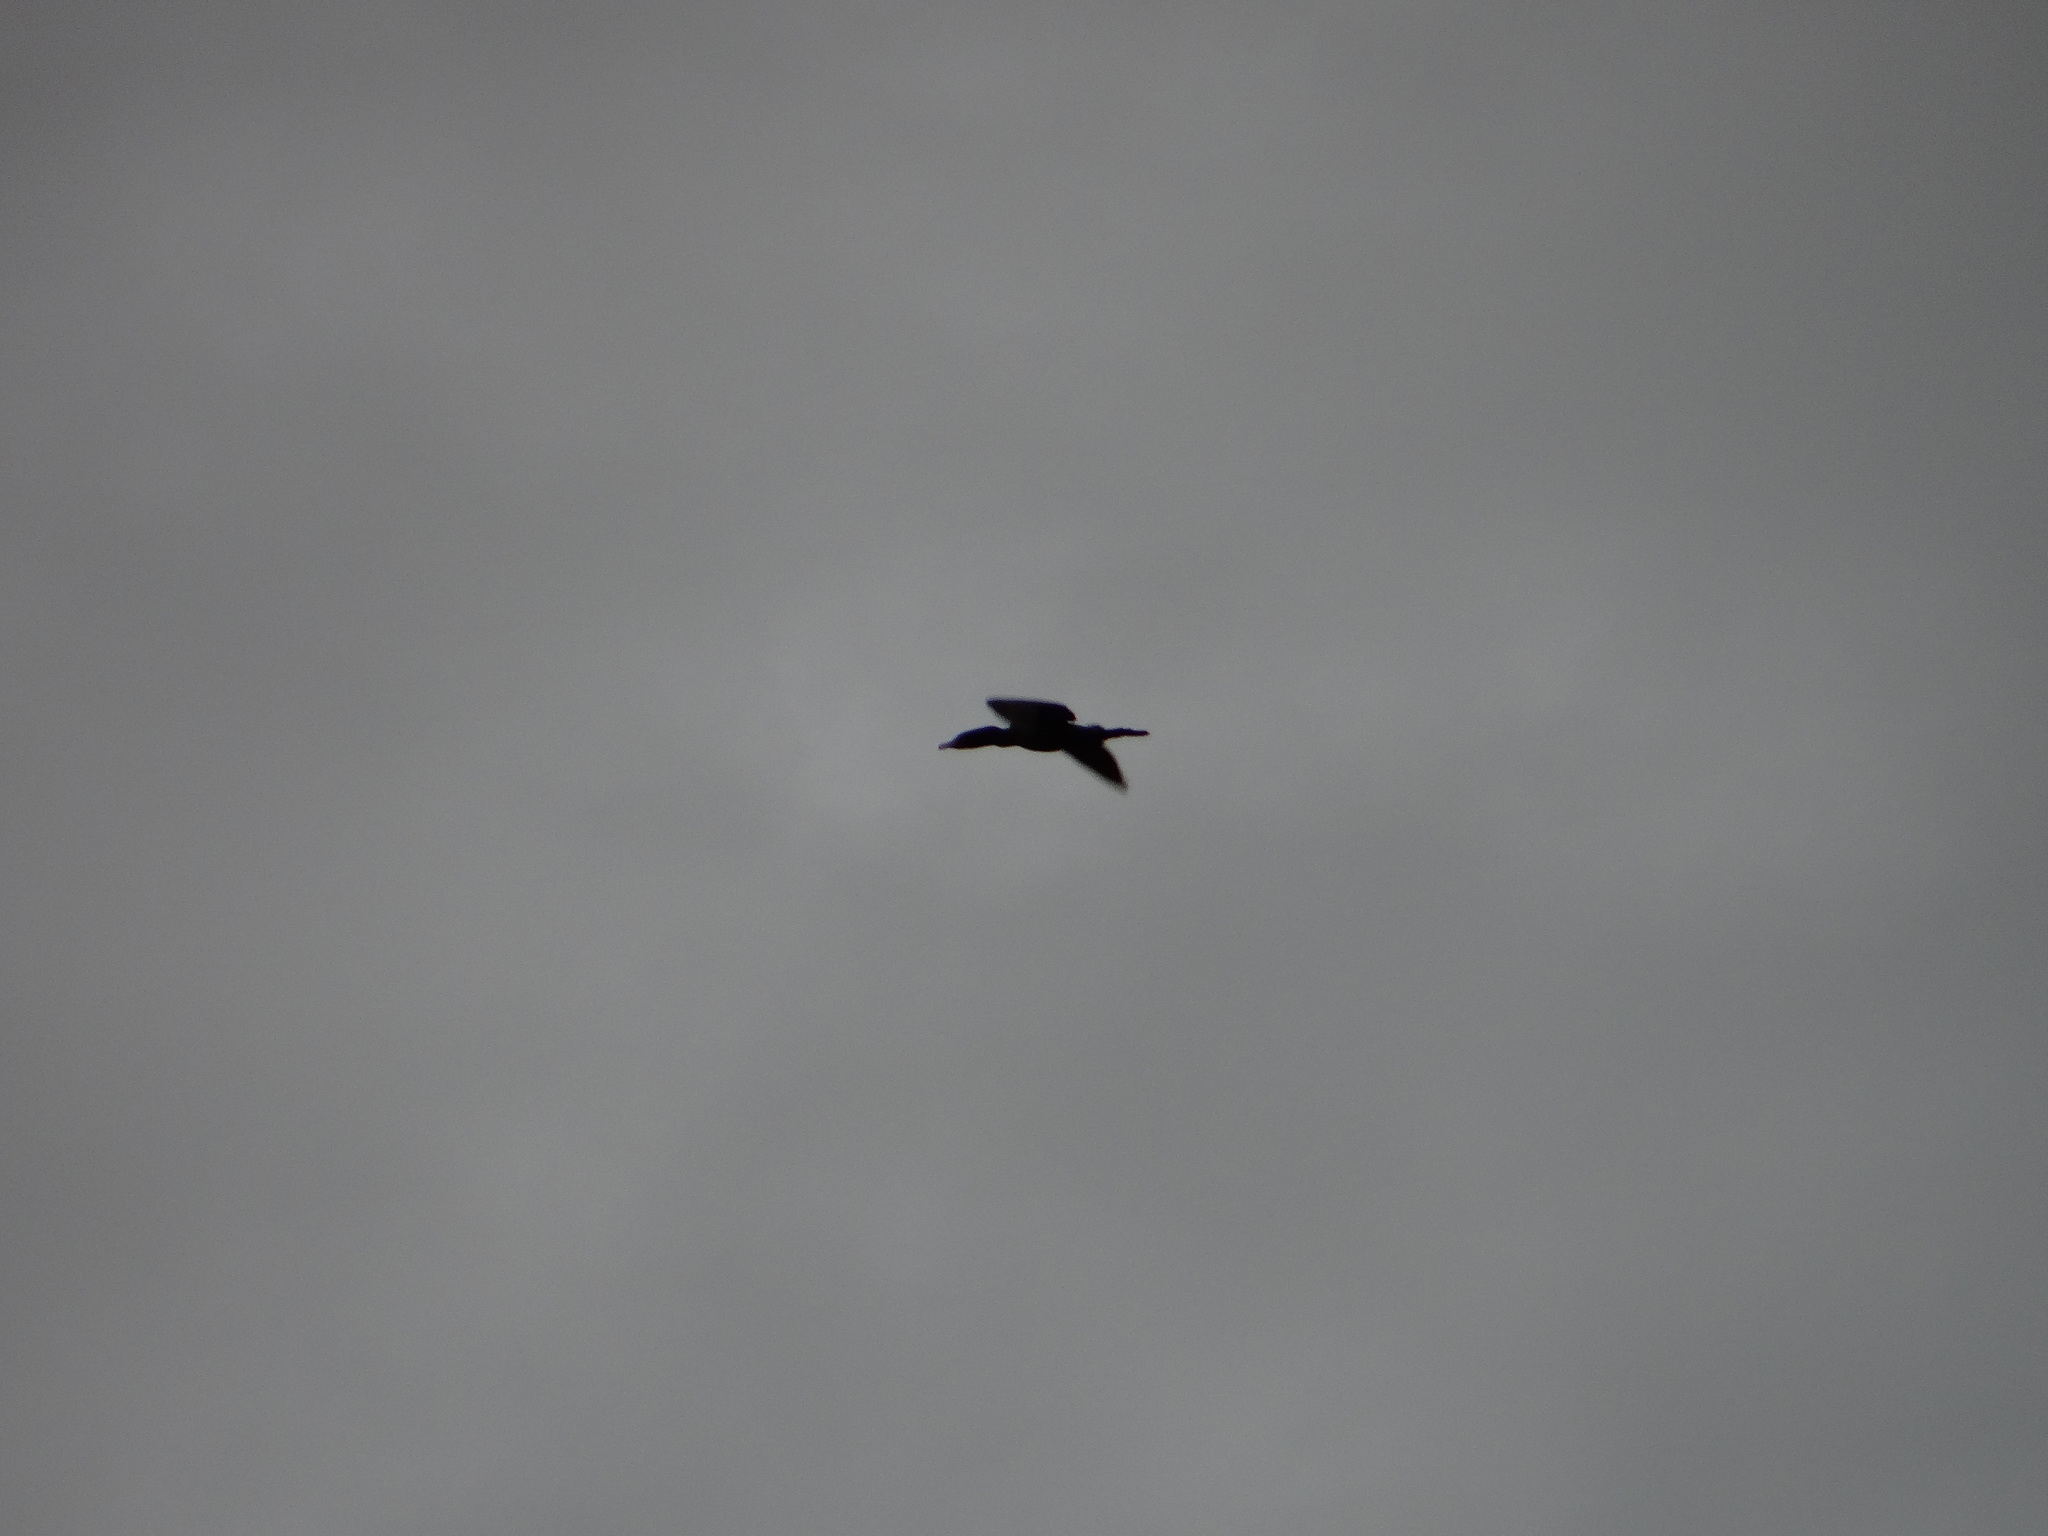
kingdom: Animalia
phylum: Chordata
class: Aves
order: Suliformes
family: Phalacrocoracidae
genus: Phalacrocorax
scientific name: Phalacrocorax brasilianus
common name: Neotropic cormorant
